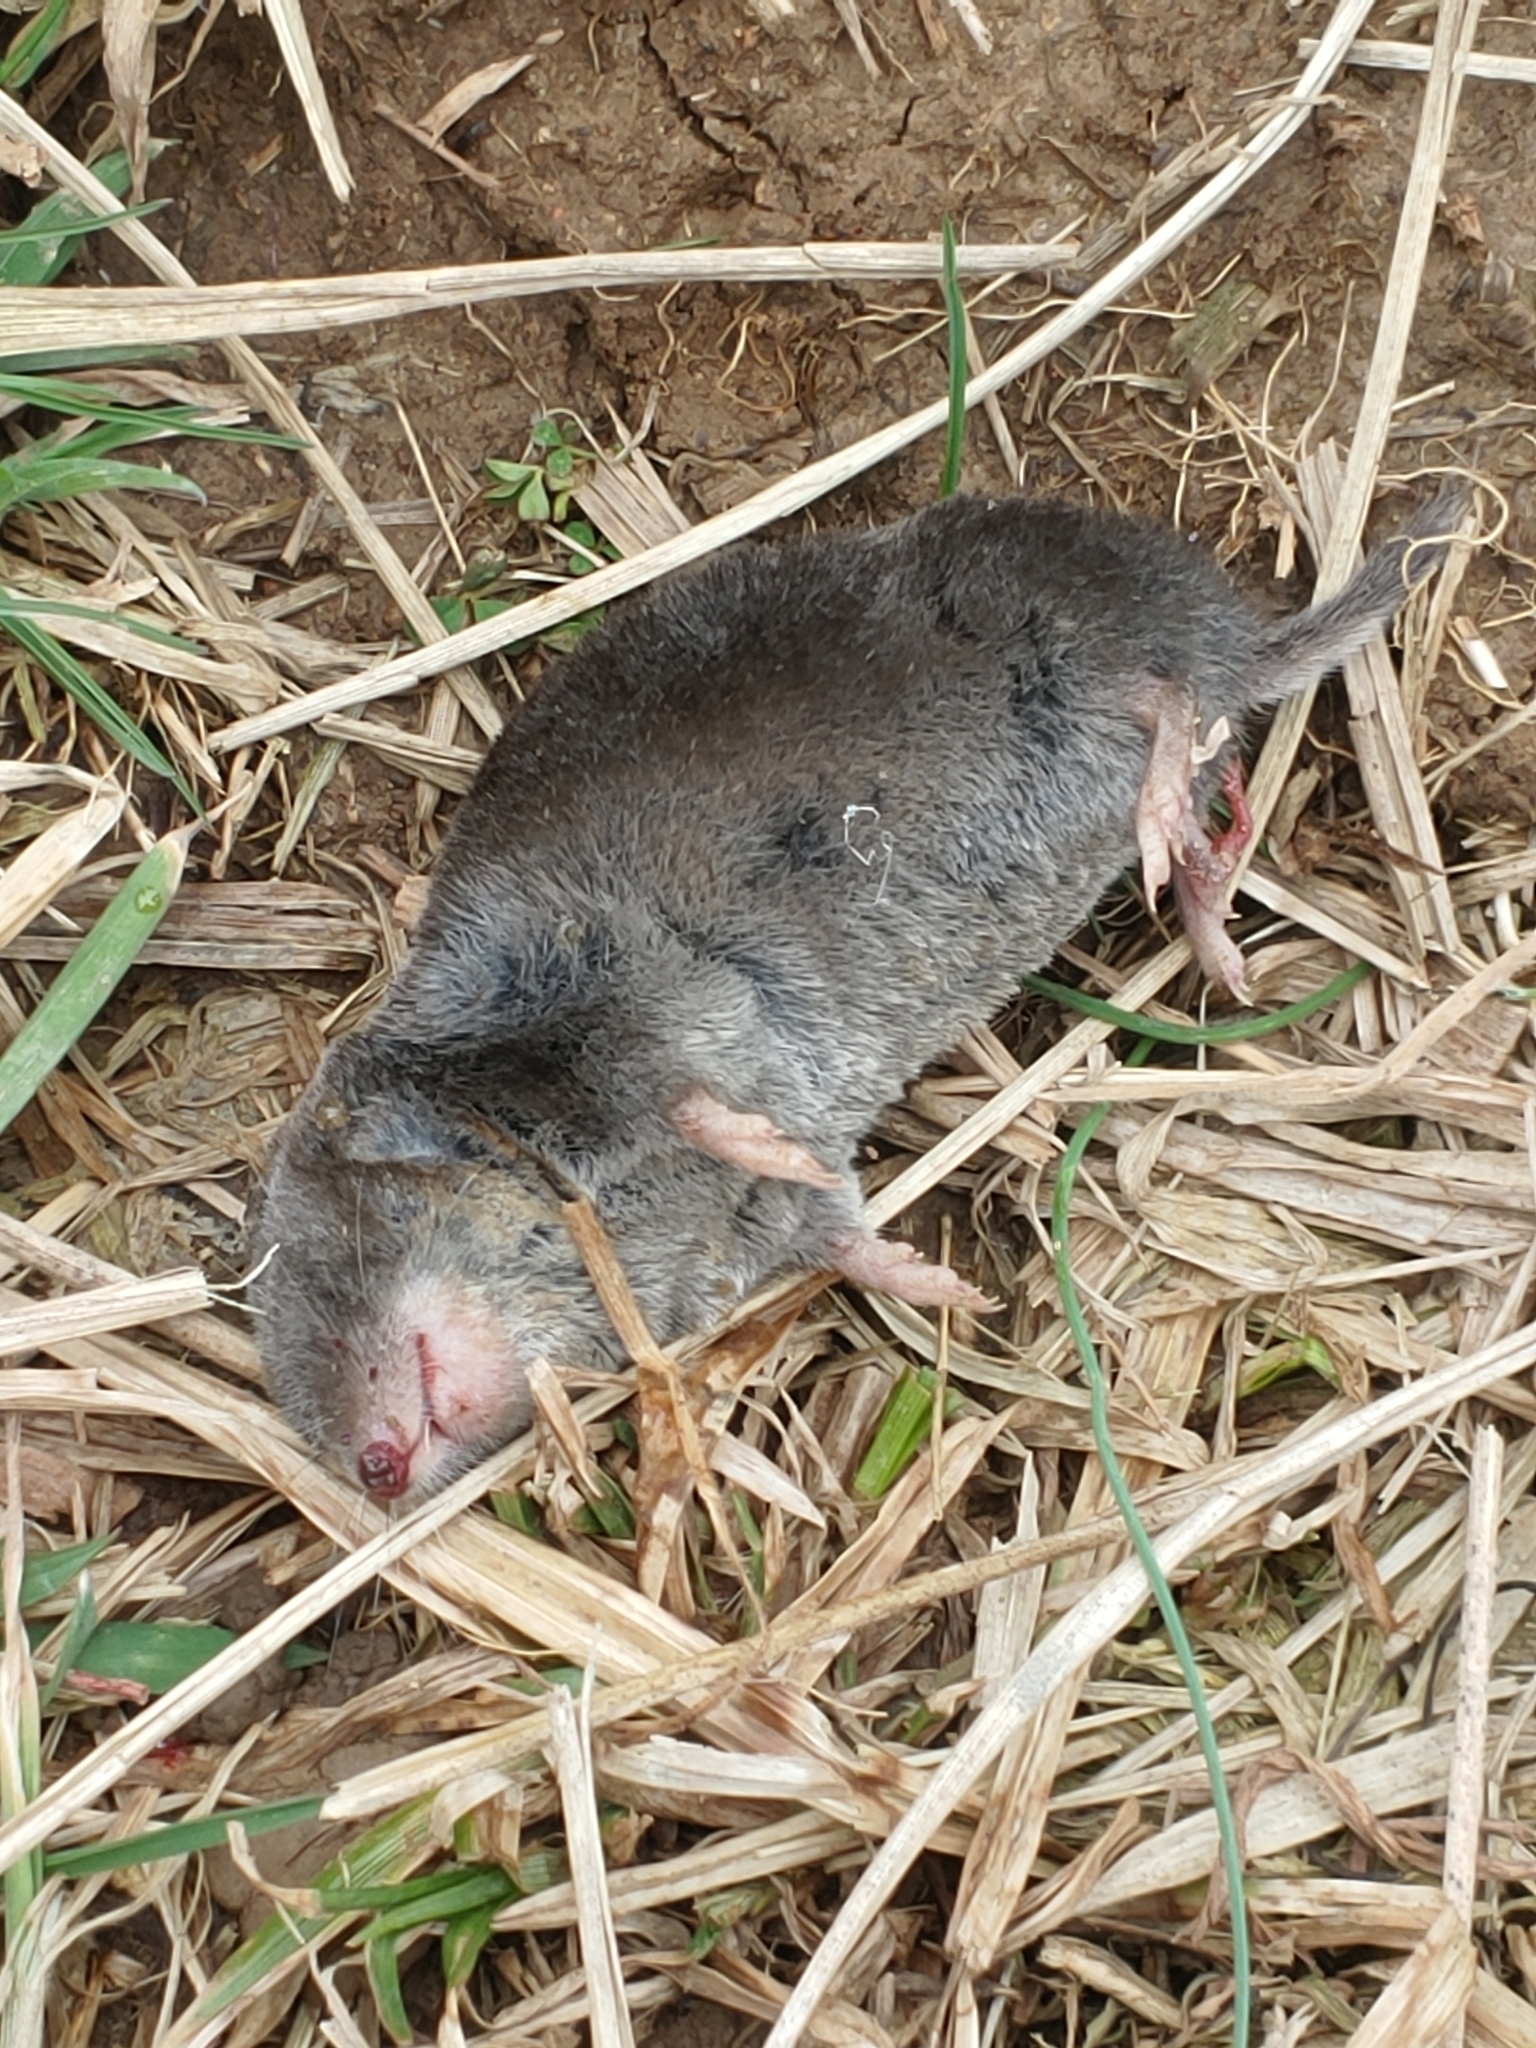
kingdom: Animalia
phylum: Chordata
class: Mammalia
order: Soricomorpha
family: Soricidae
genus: Blarina
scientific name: Blarina brevicauda
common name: Northern short-tailed shrew
